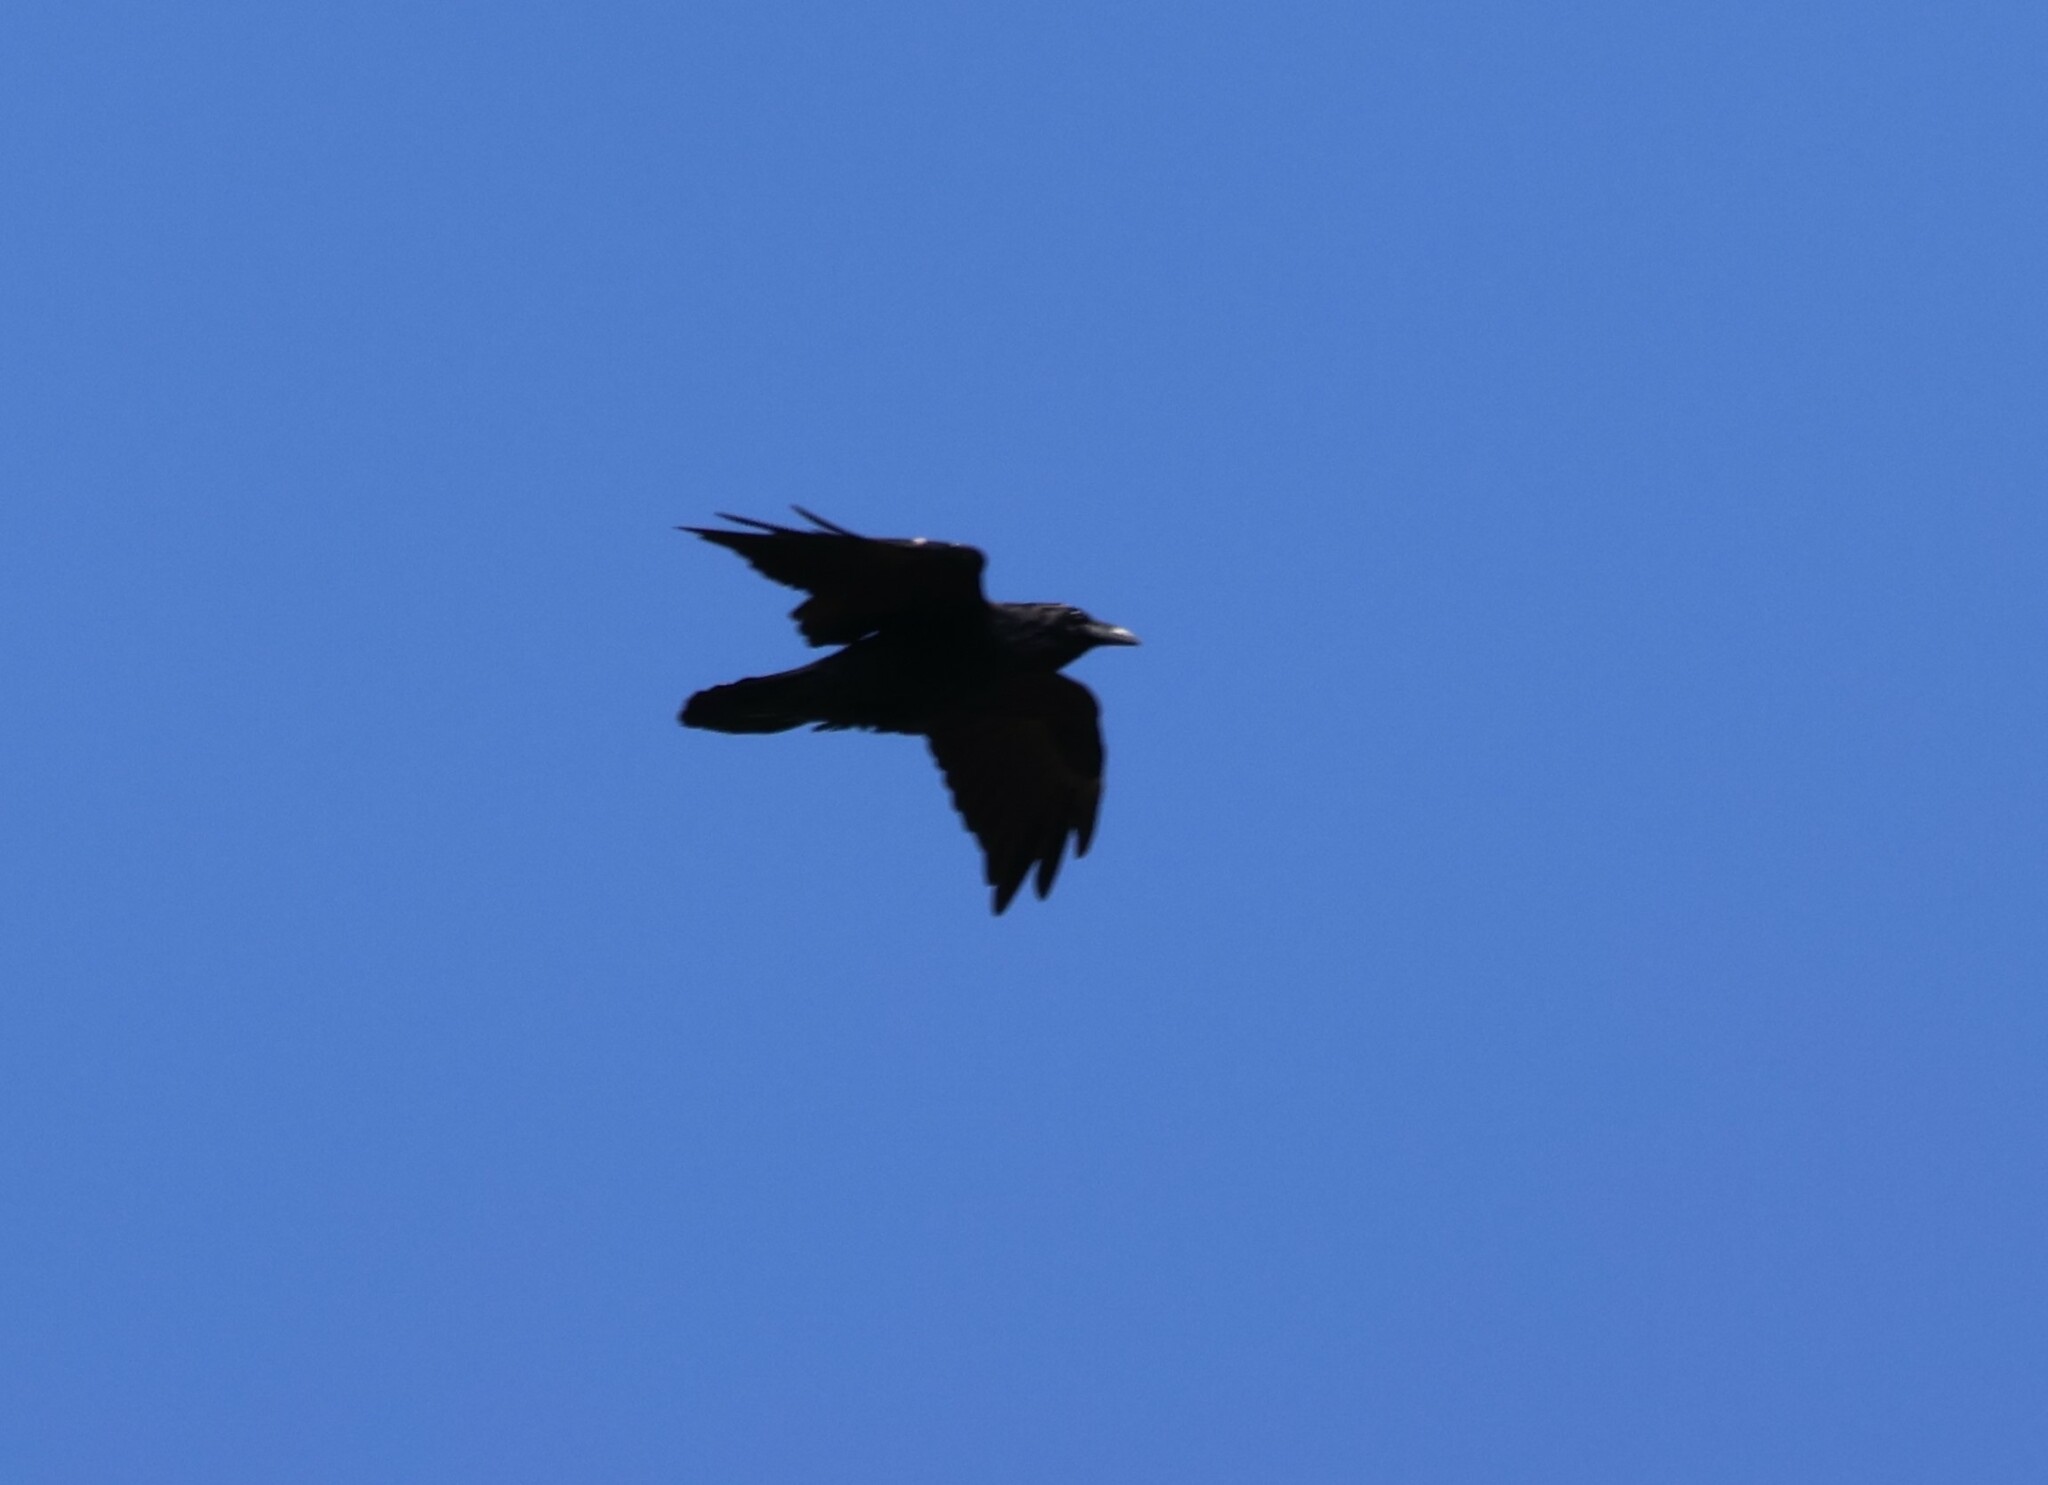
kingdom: Animalia
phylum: Chordata
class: Aves
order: Passeriformes
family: Corvidae
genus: Corvus
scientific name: Corvus corax
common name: Common raven
